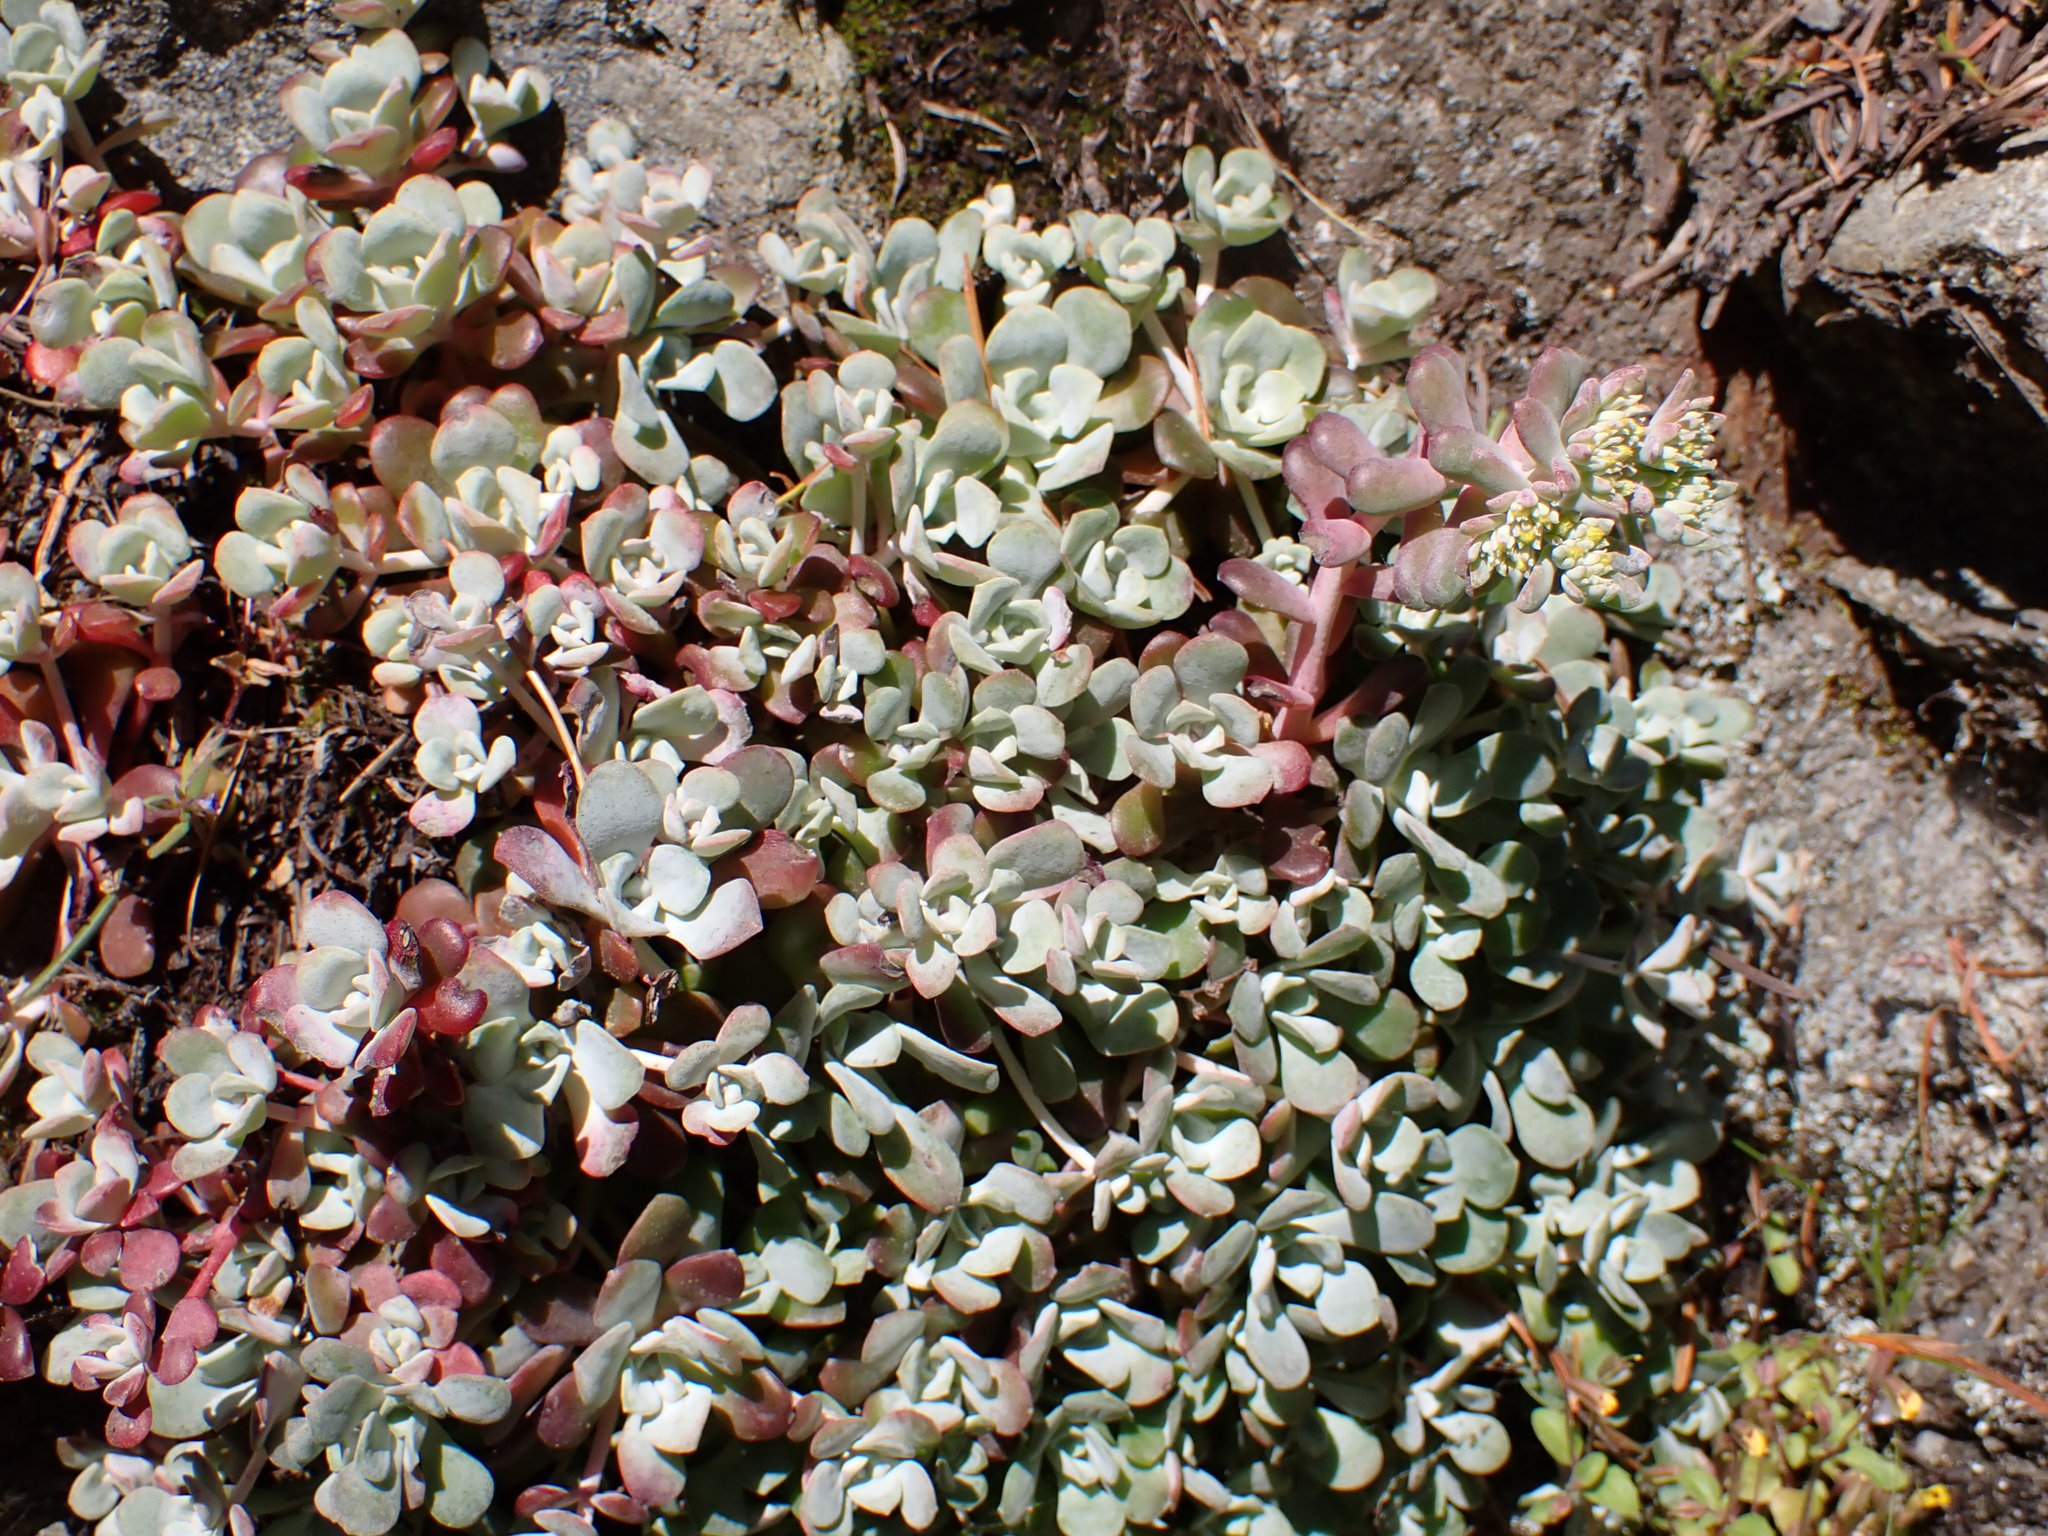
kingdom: Plantae
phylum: Tracheophyta
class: Magnoliopsida
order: Saxifragales
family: Crassulaceae
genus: Sedum
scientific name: Sedum spathulifolium
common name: Colorado stonecrop
